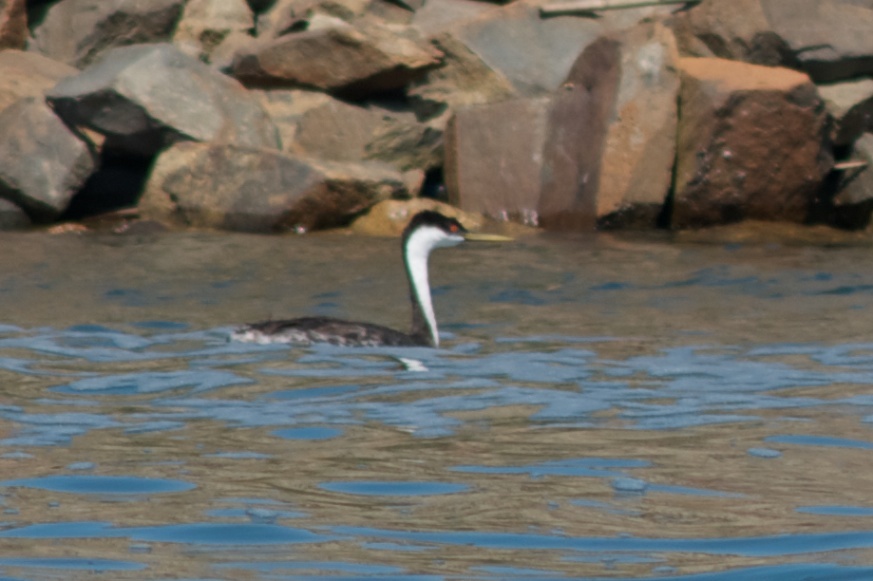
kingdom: Animalia
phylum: Chordata
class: Aves
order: Podicipediformes
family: Podicipedidae
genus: Aechmophorus
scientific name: Aechmophorus occidentalis
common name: Western grebe
